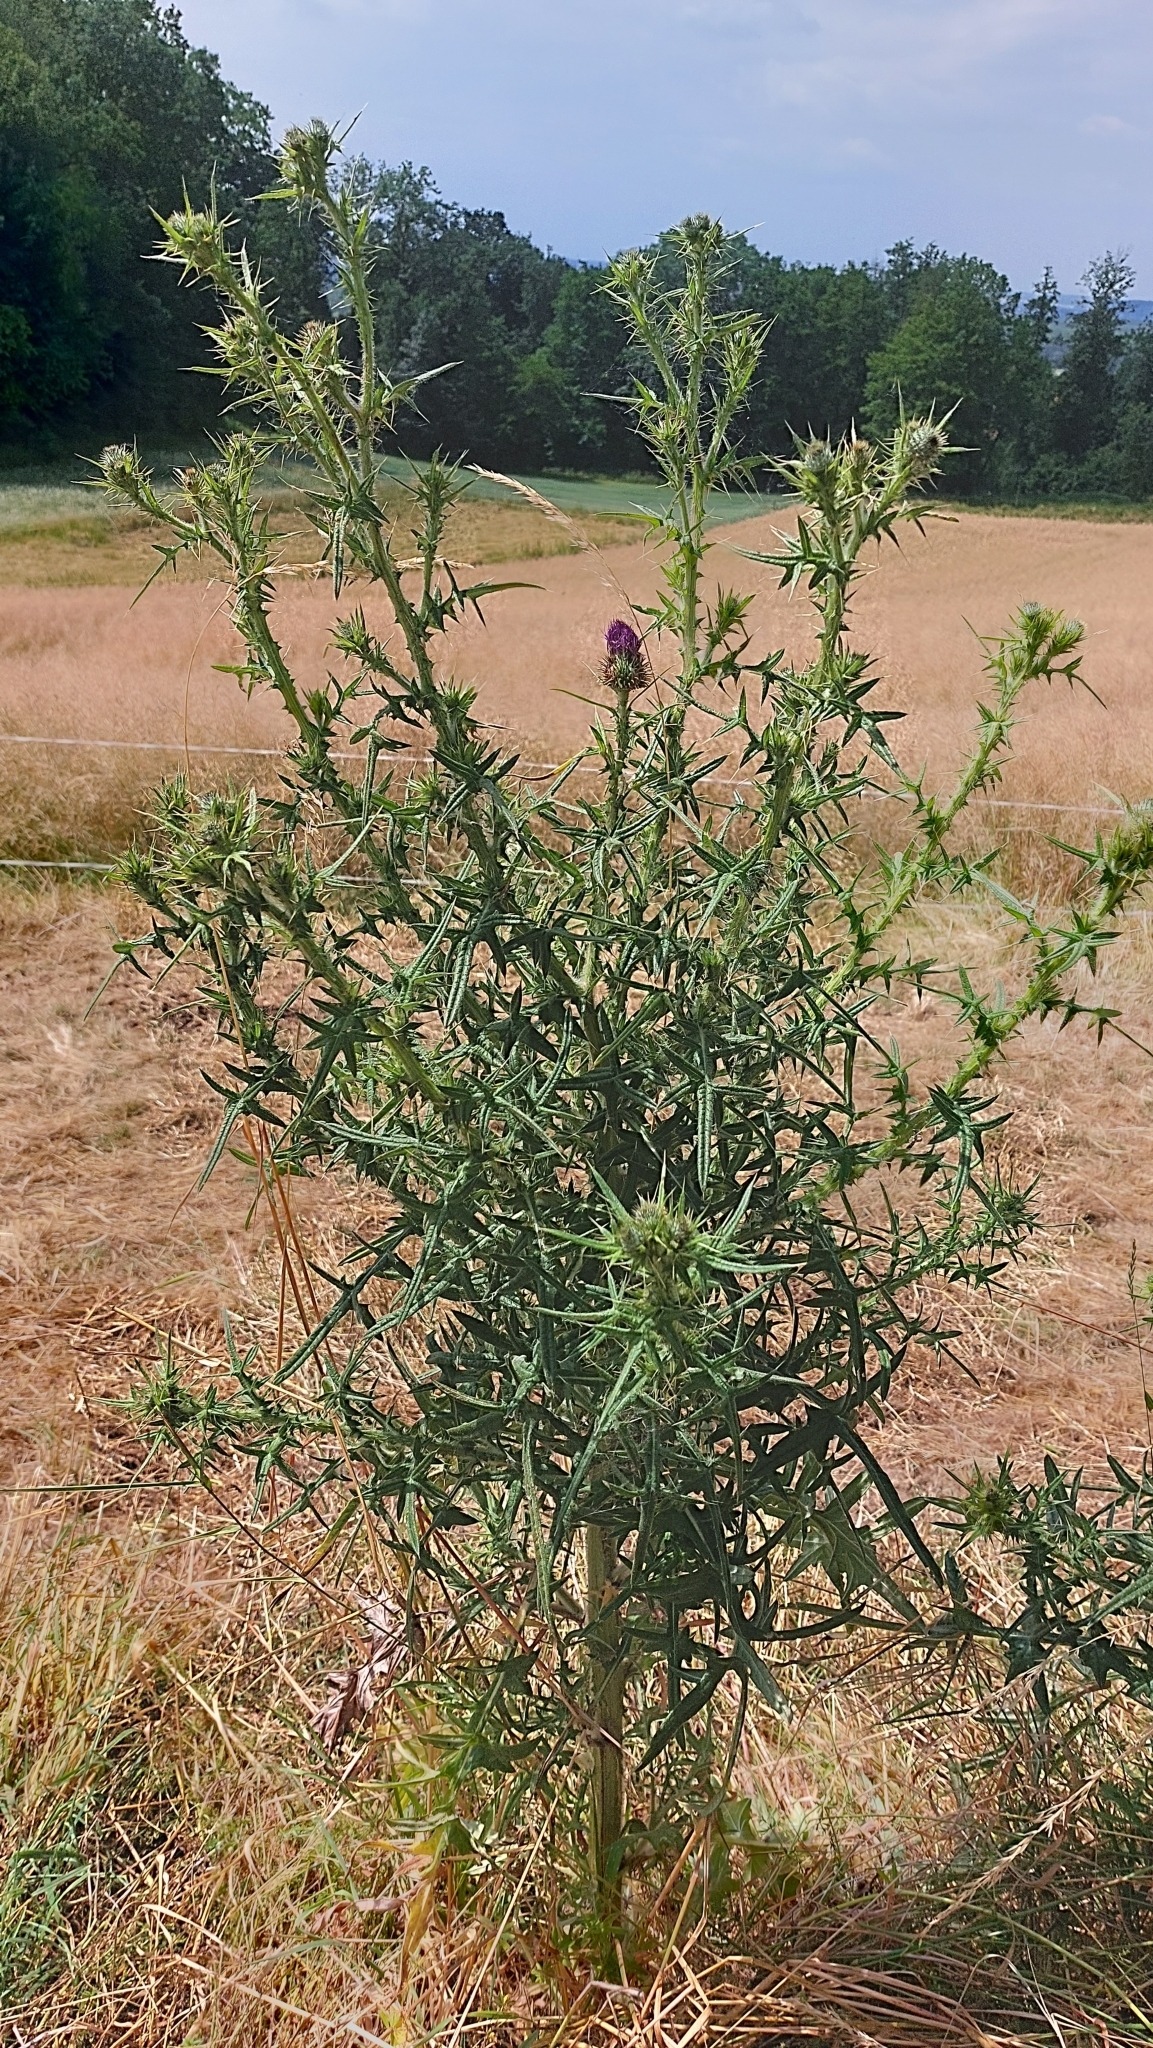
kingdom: Plantae
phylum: Tracheophyta
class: Magnoliopsida
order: Asterales
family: Asteraceae
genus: Cirsium
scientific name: Cirsium vulgare
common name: Bull thistle
